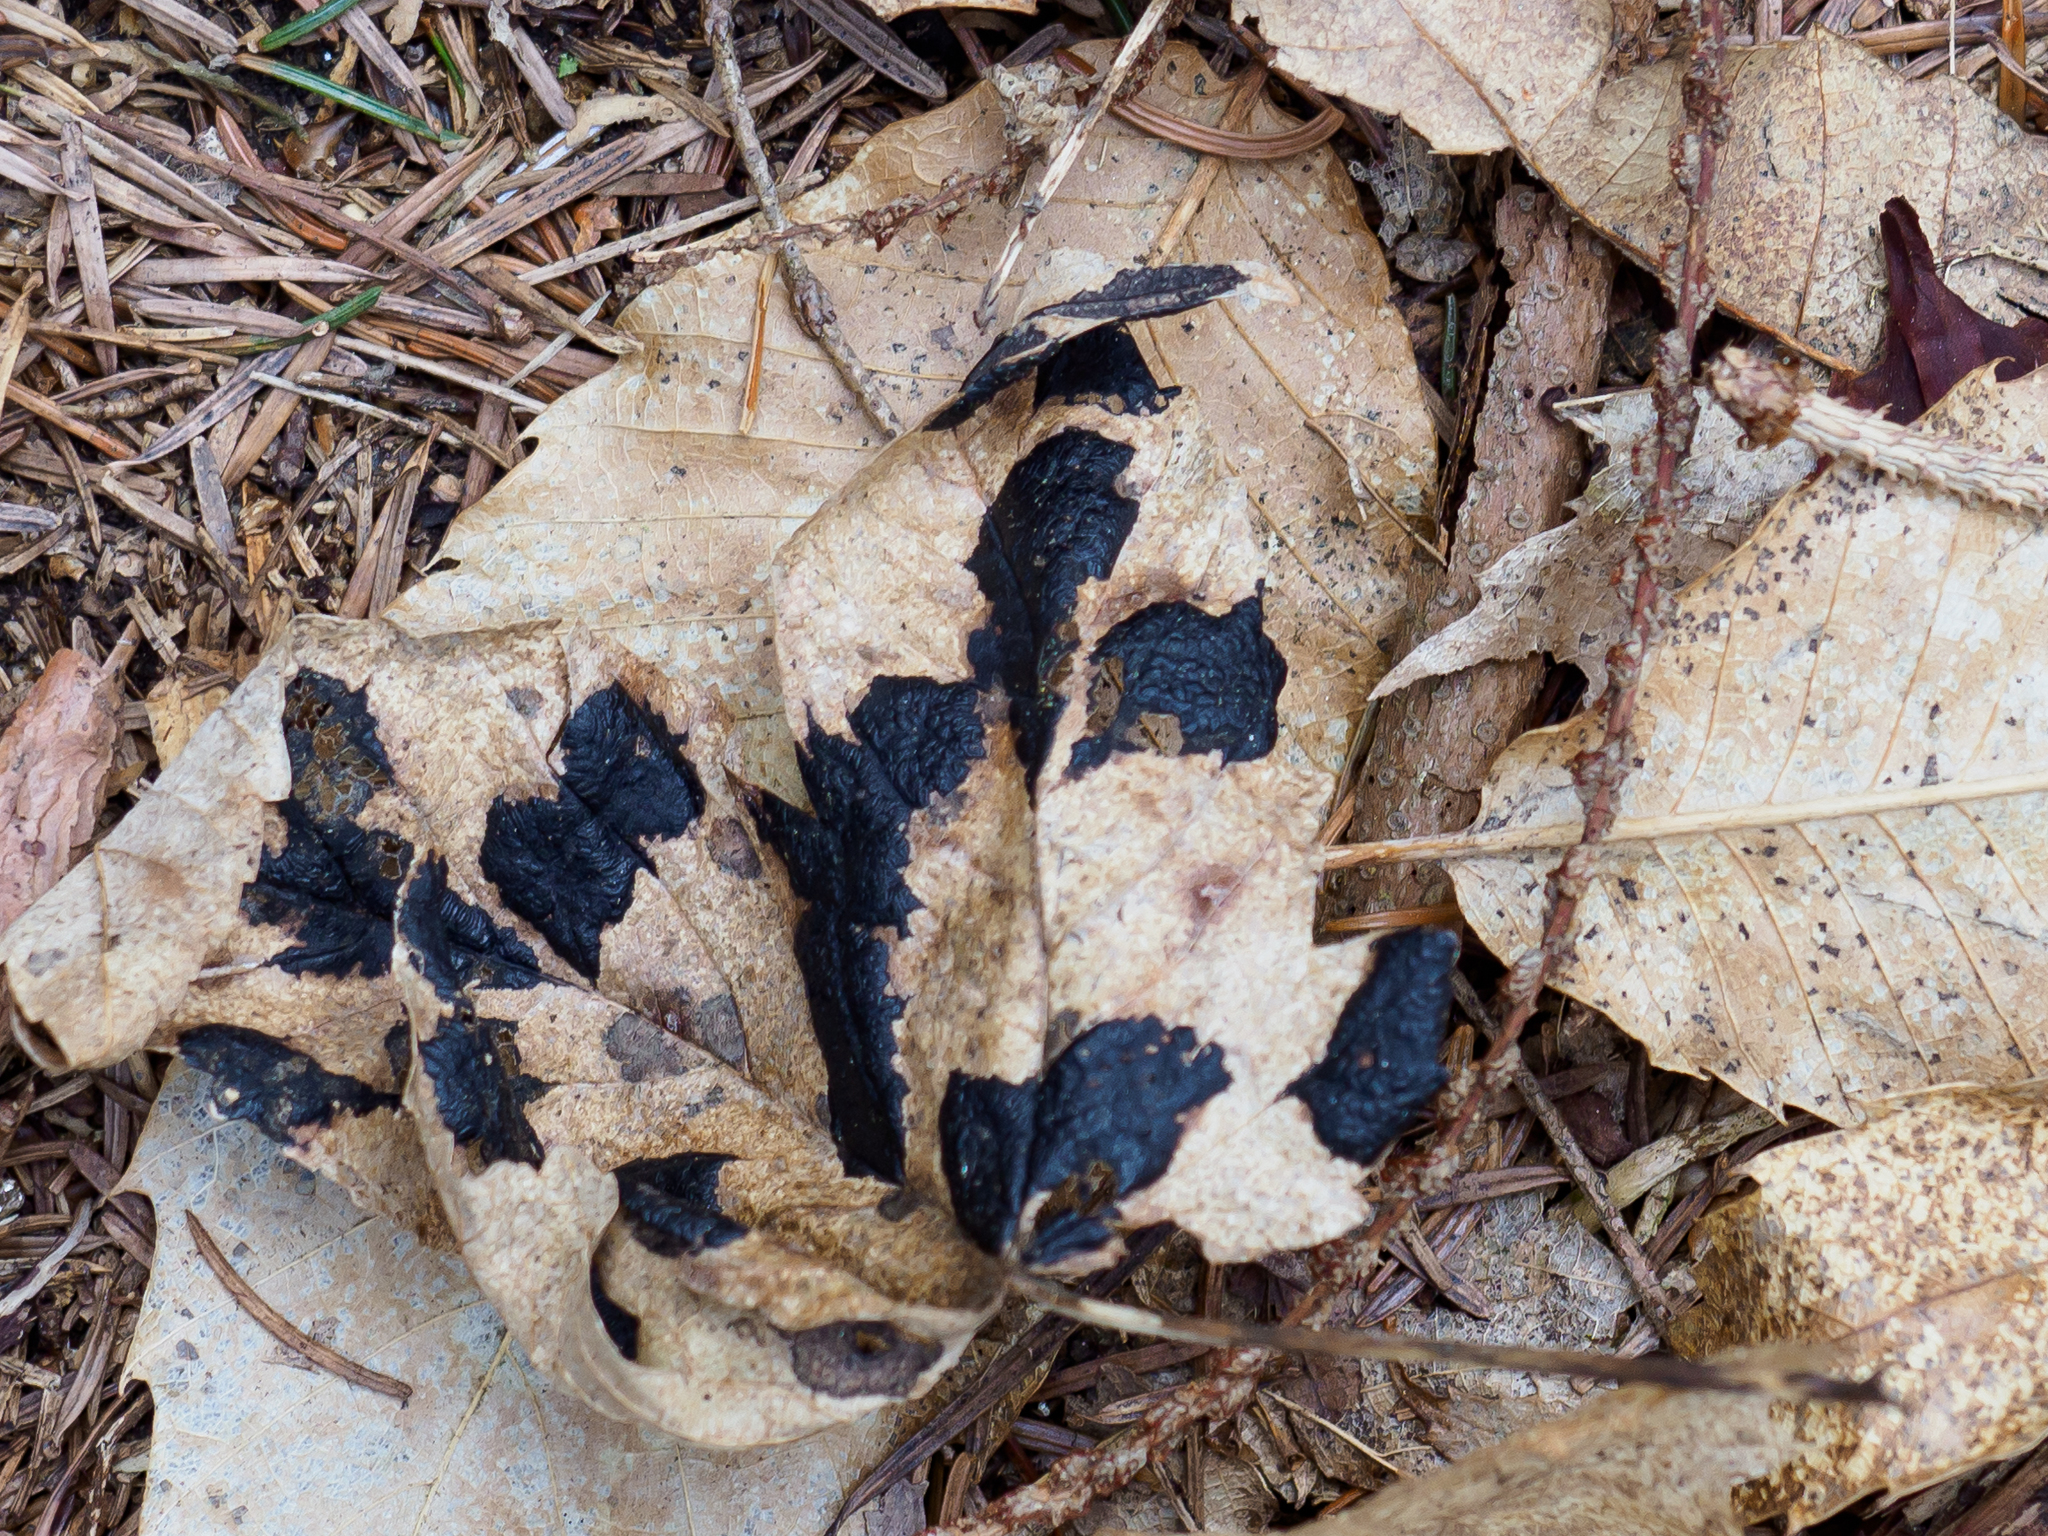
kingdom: Fungi
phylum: Ascomycota
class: Leotiomycetes
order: Rhytismatales
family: Rhytismataceae
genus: Rhytisma
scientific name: Rhytisma acerinum
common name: European tar spot
